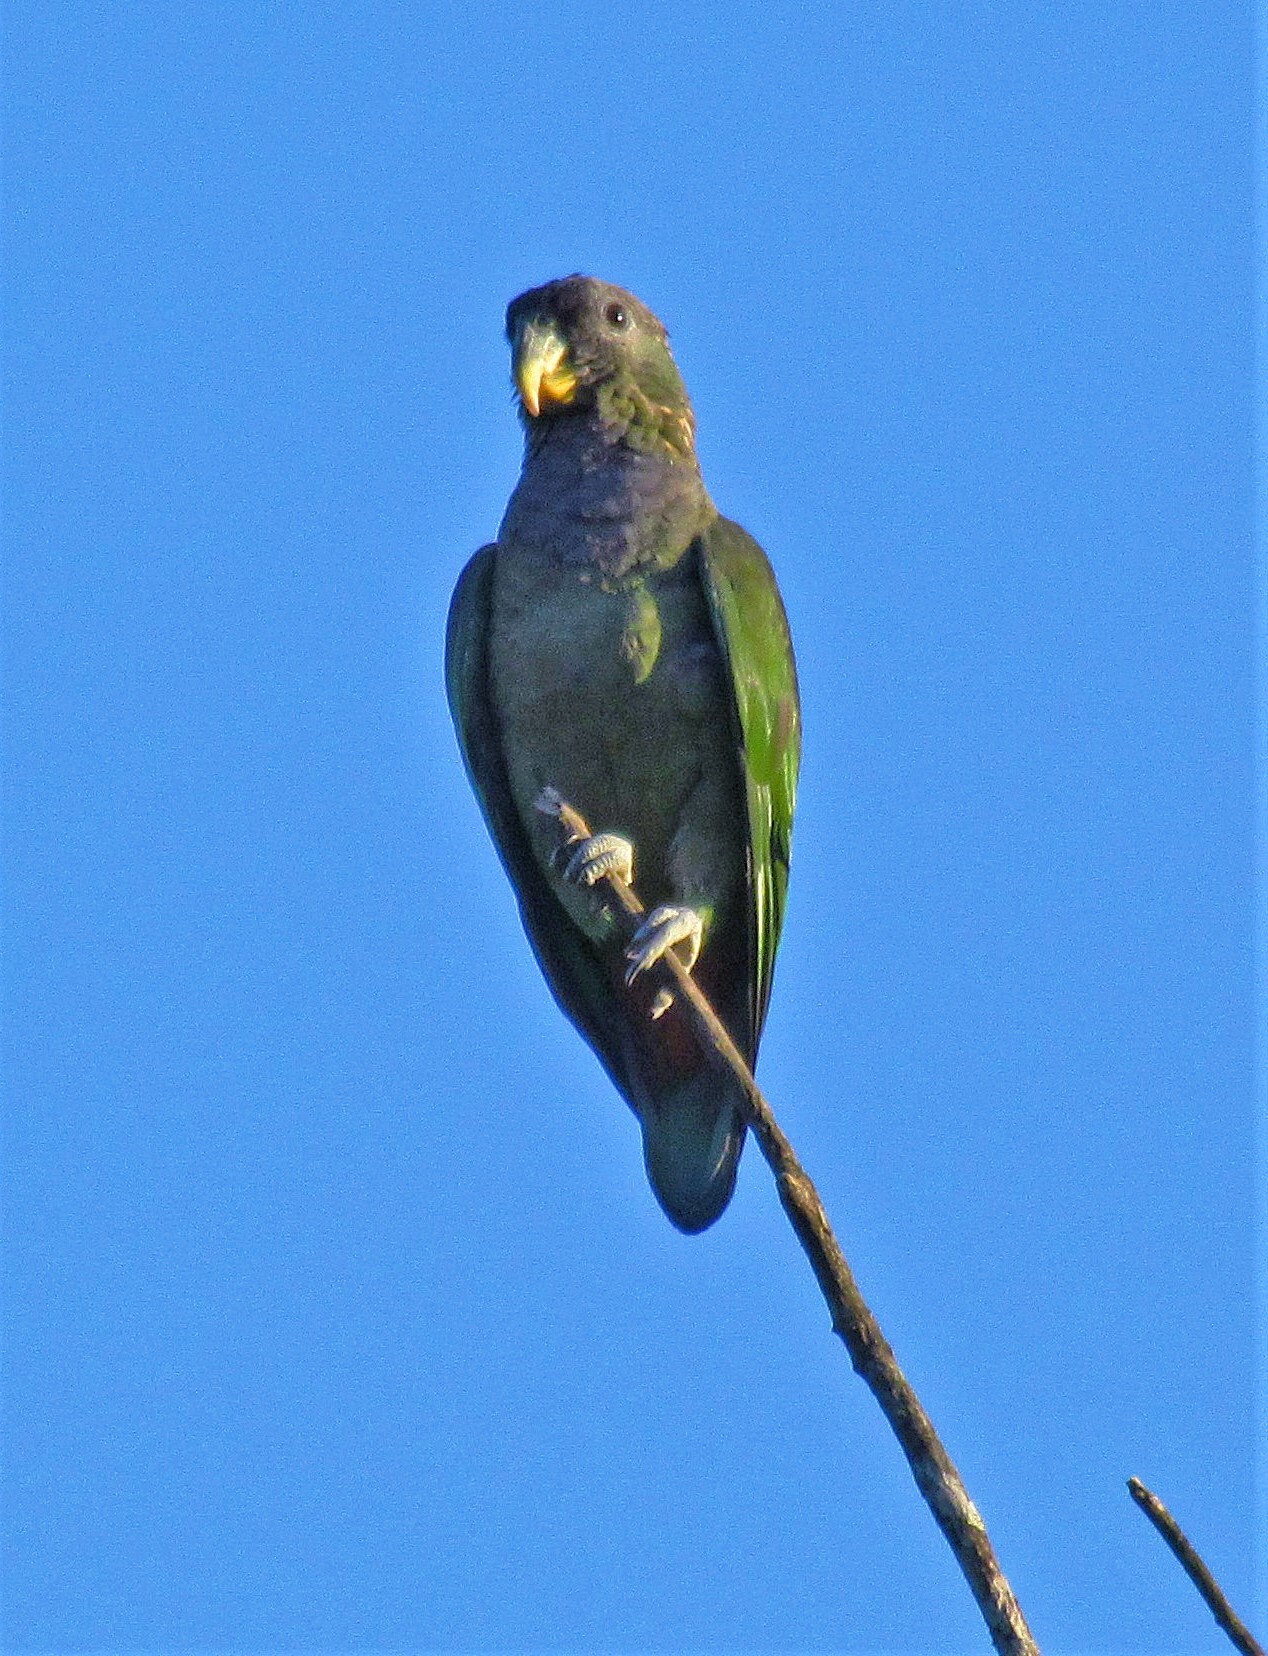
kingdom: Animalia
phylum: Chordata
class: Aves
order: Psittaciformes
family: Psittacidae
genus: Pionus
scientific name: Pionus maximiliani
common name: Scaly-headed parrot
